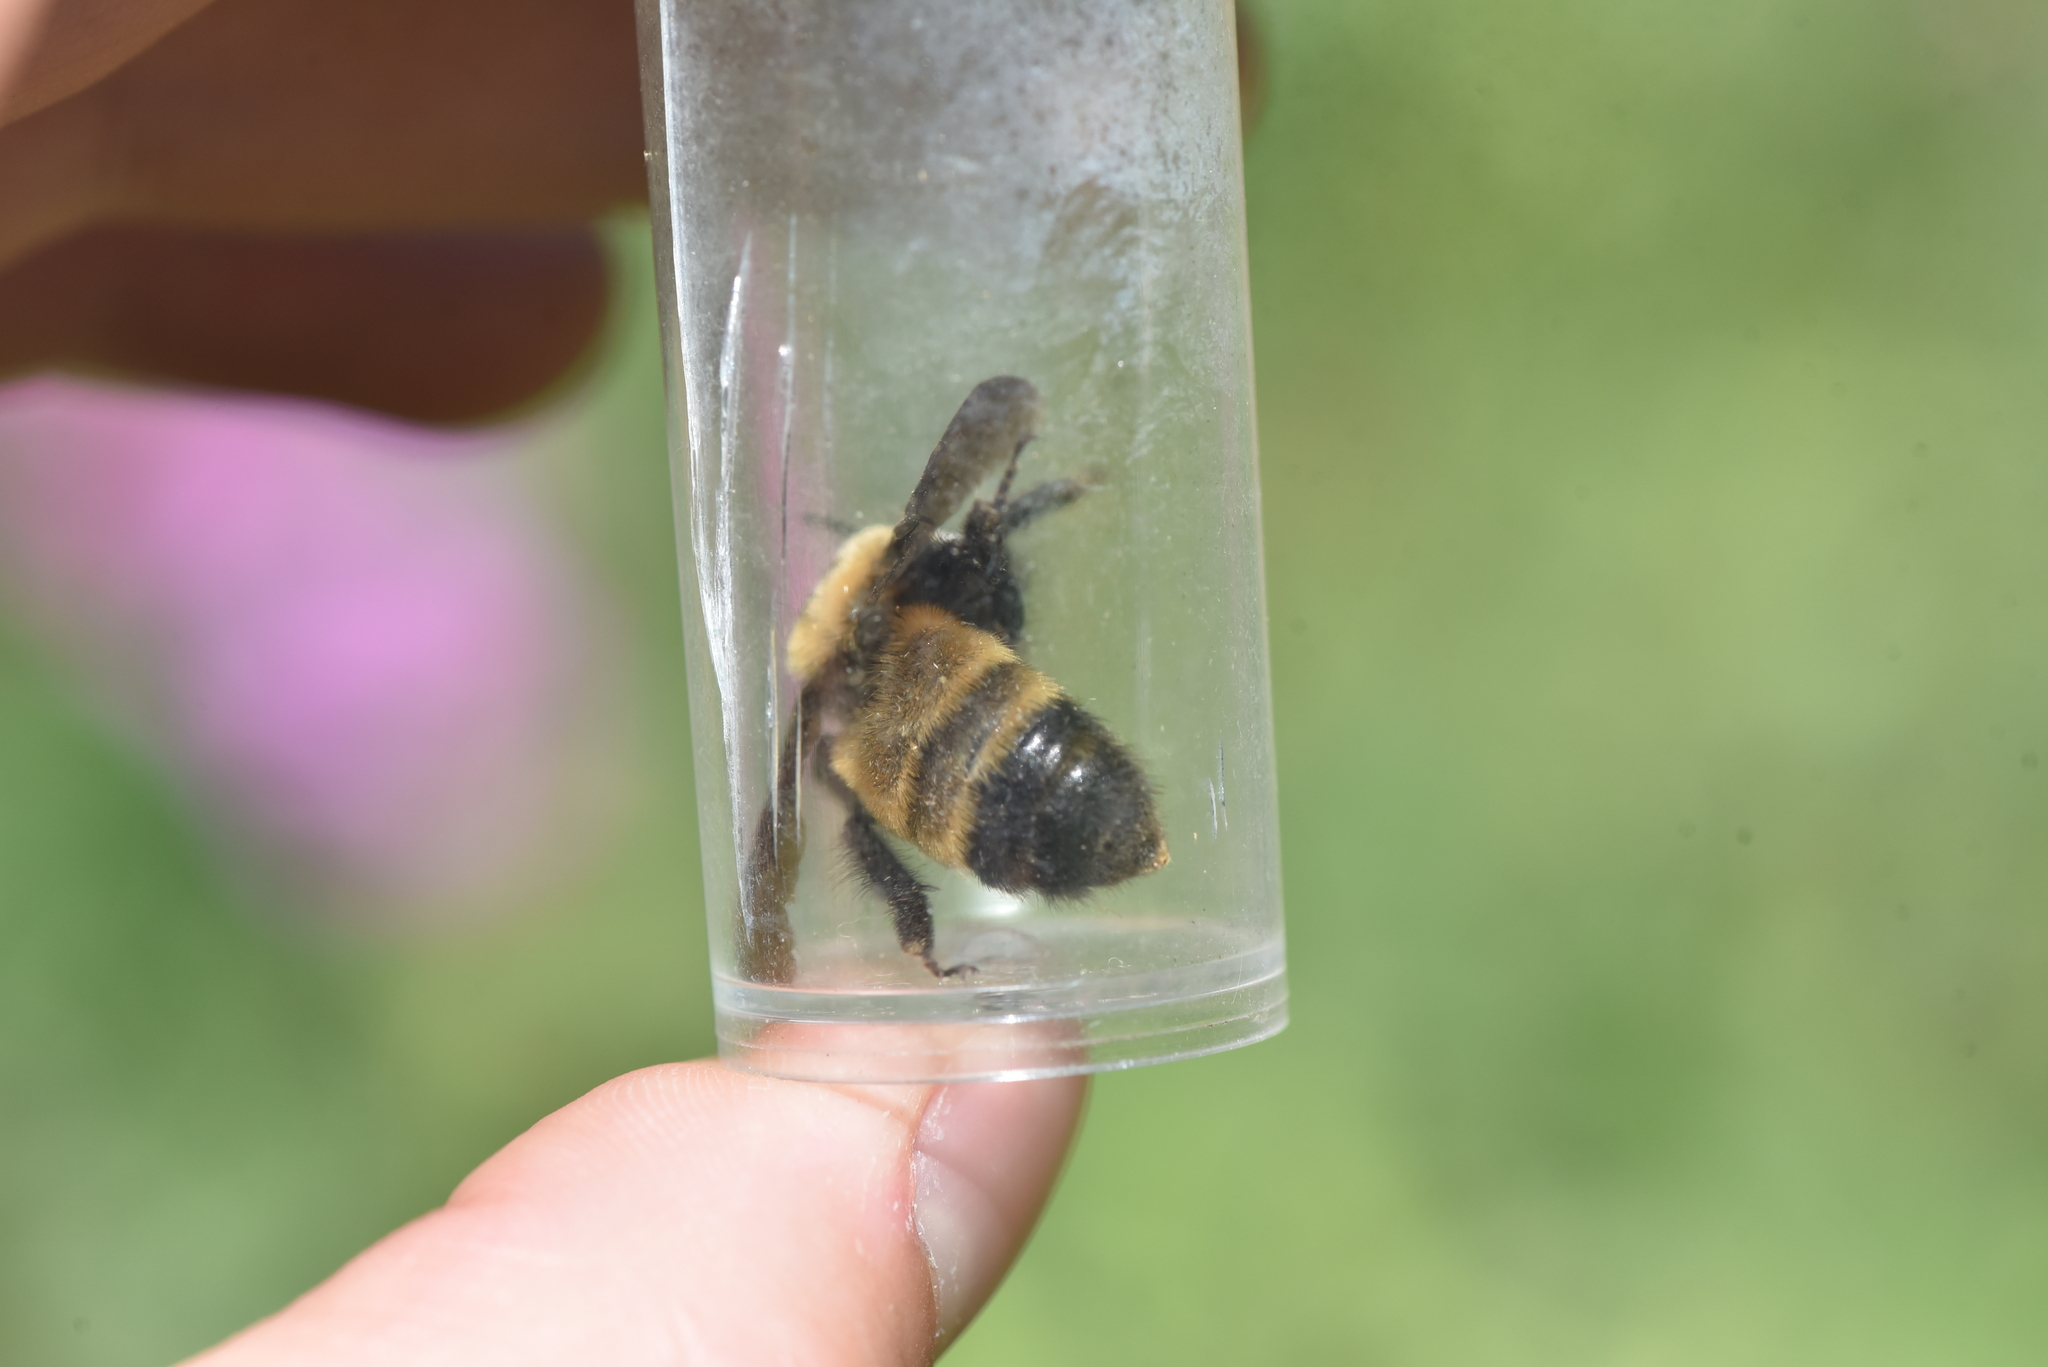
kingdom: Animalia
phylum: Arthropoda
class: Insecta
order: Hymenoptera
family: Apidae
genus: Bombus
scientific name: Bombus nevadensis
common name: Nevada bumble bee
